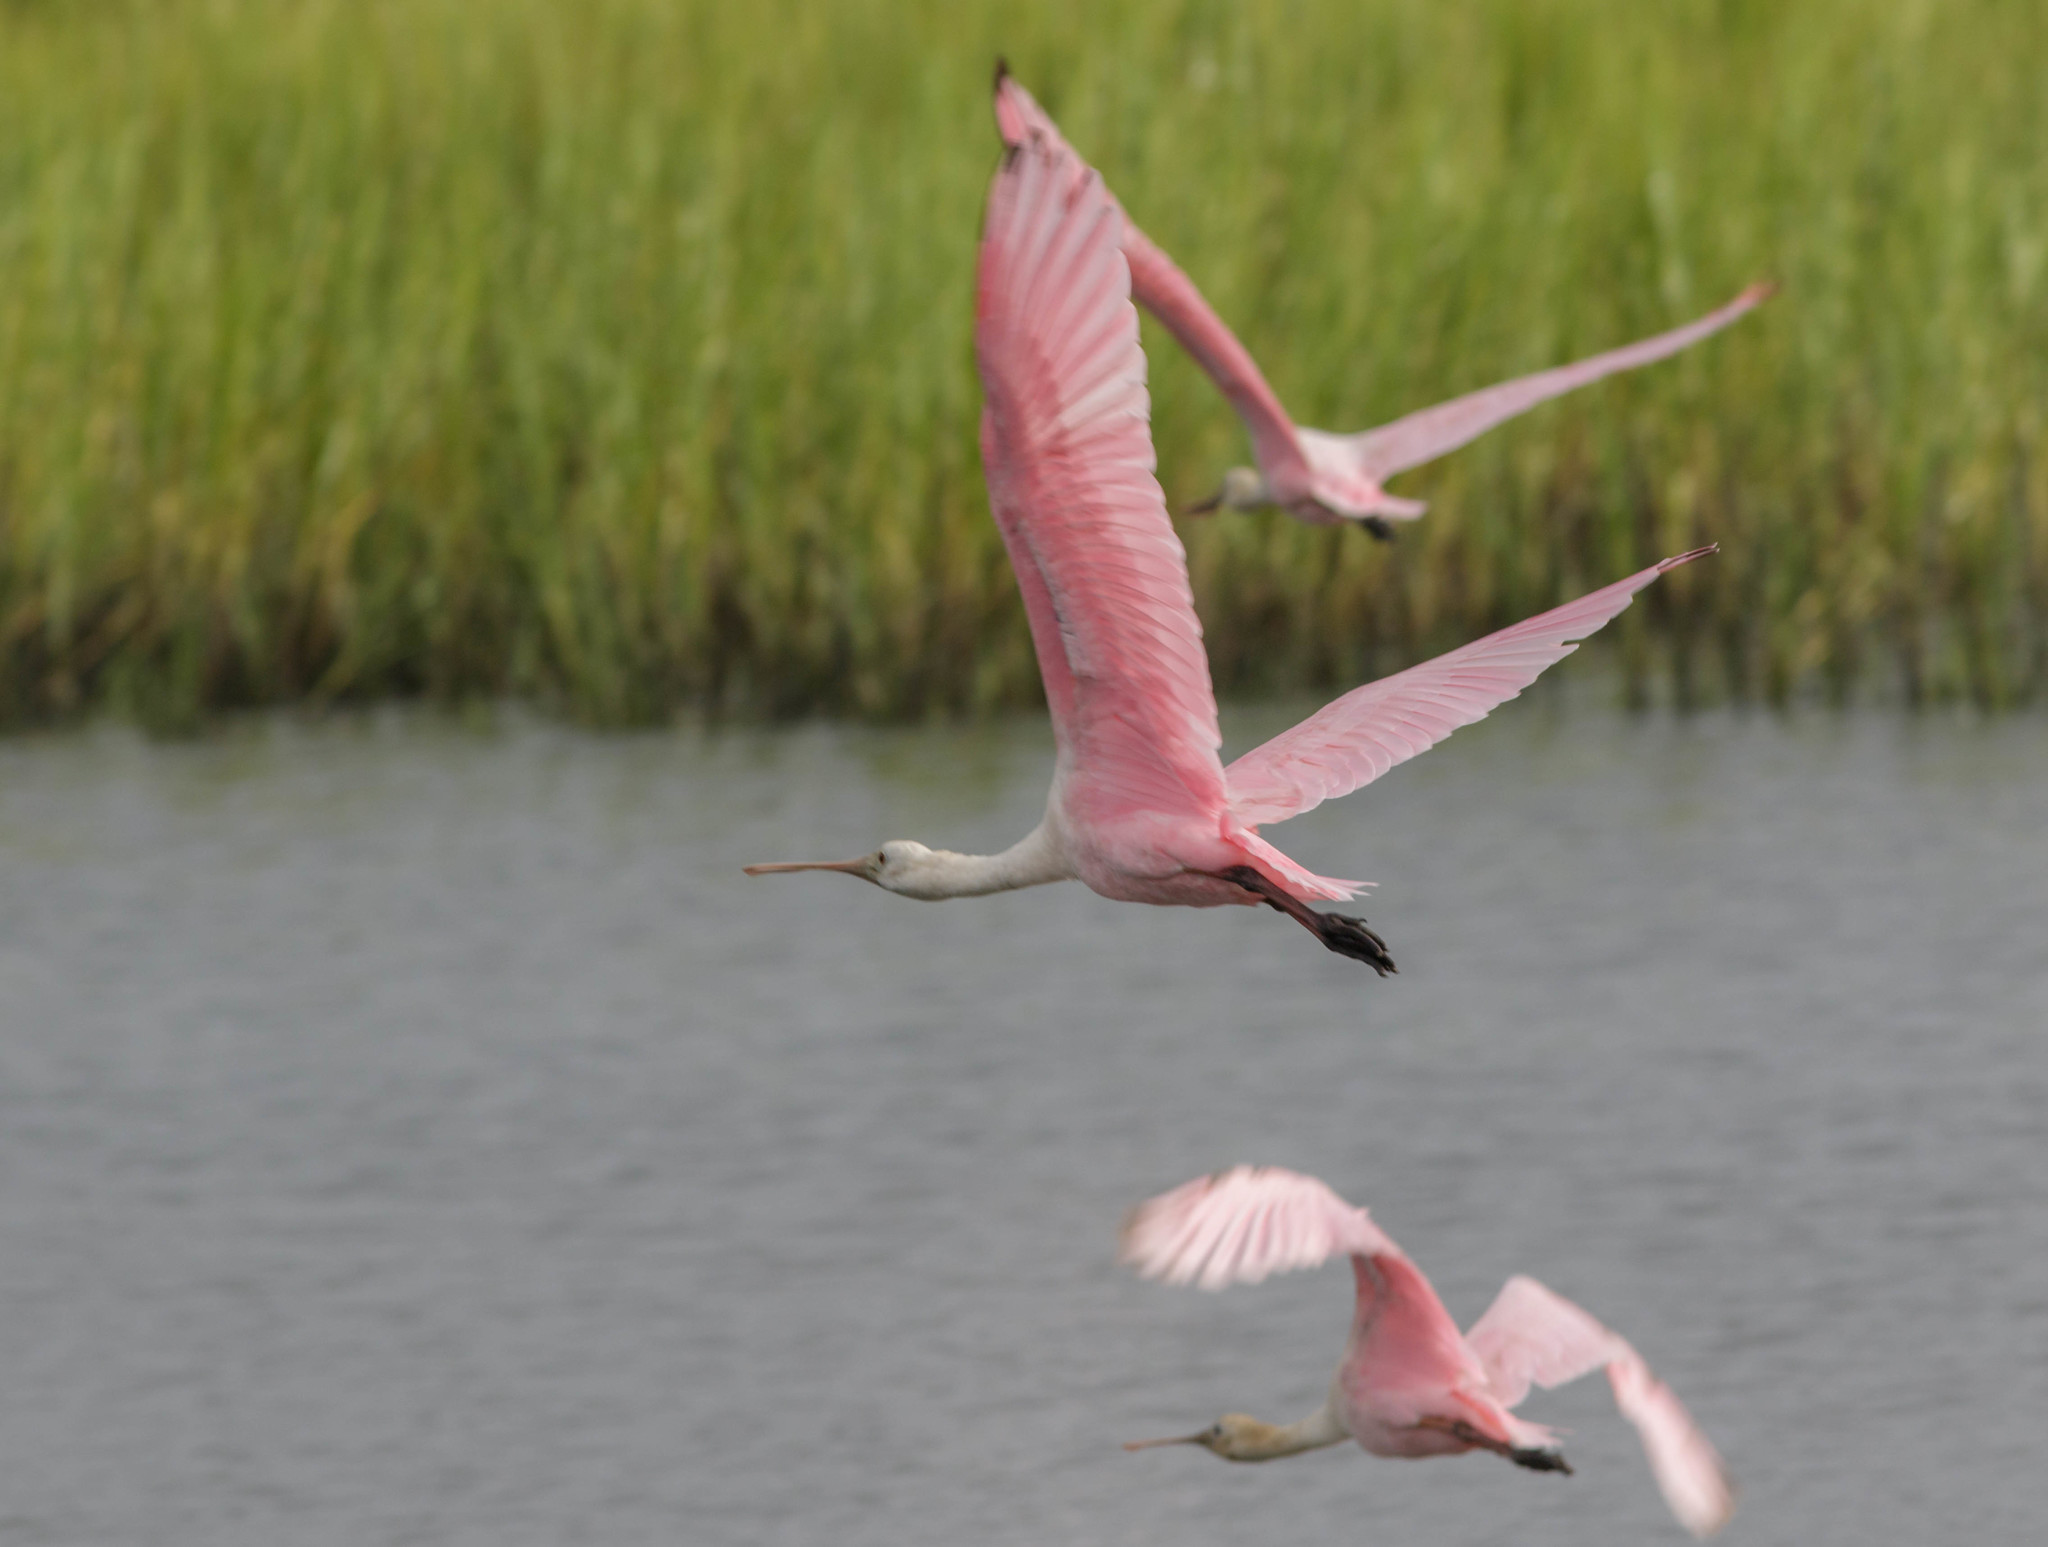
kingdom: Animalia
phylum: Chordata
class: Aves
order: Pelecaniformes
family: Threskiornithidae
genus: Platalea
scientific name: Platalea ajaja
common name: Roseate spoonbill
